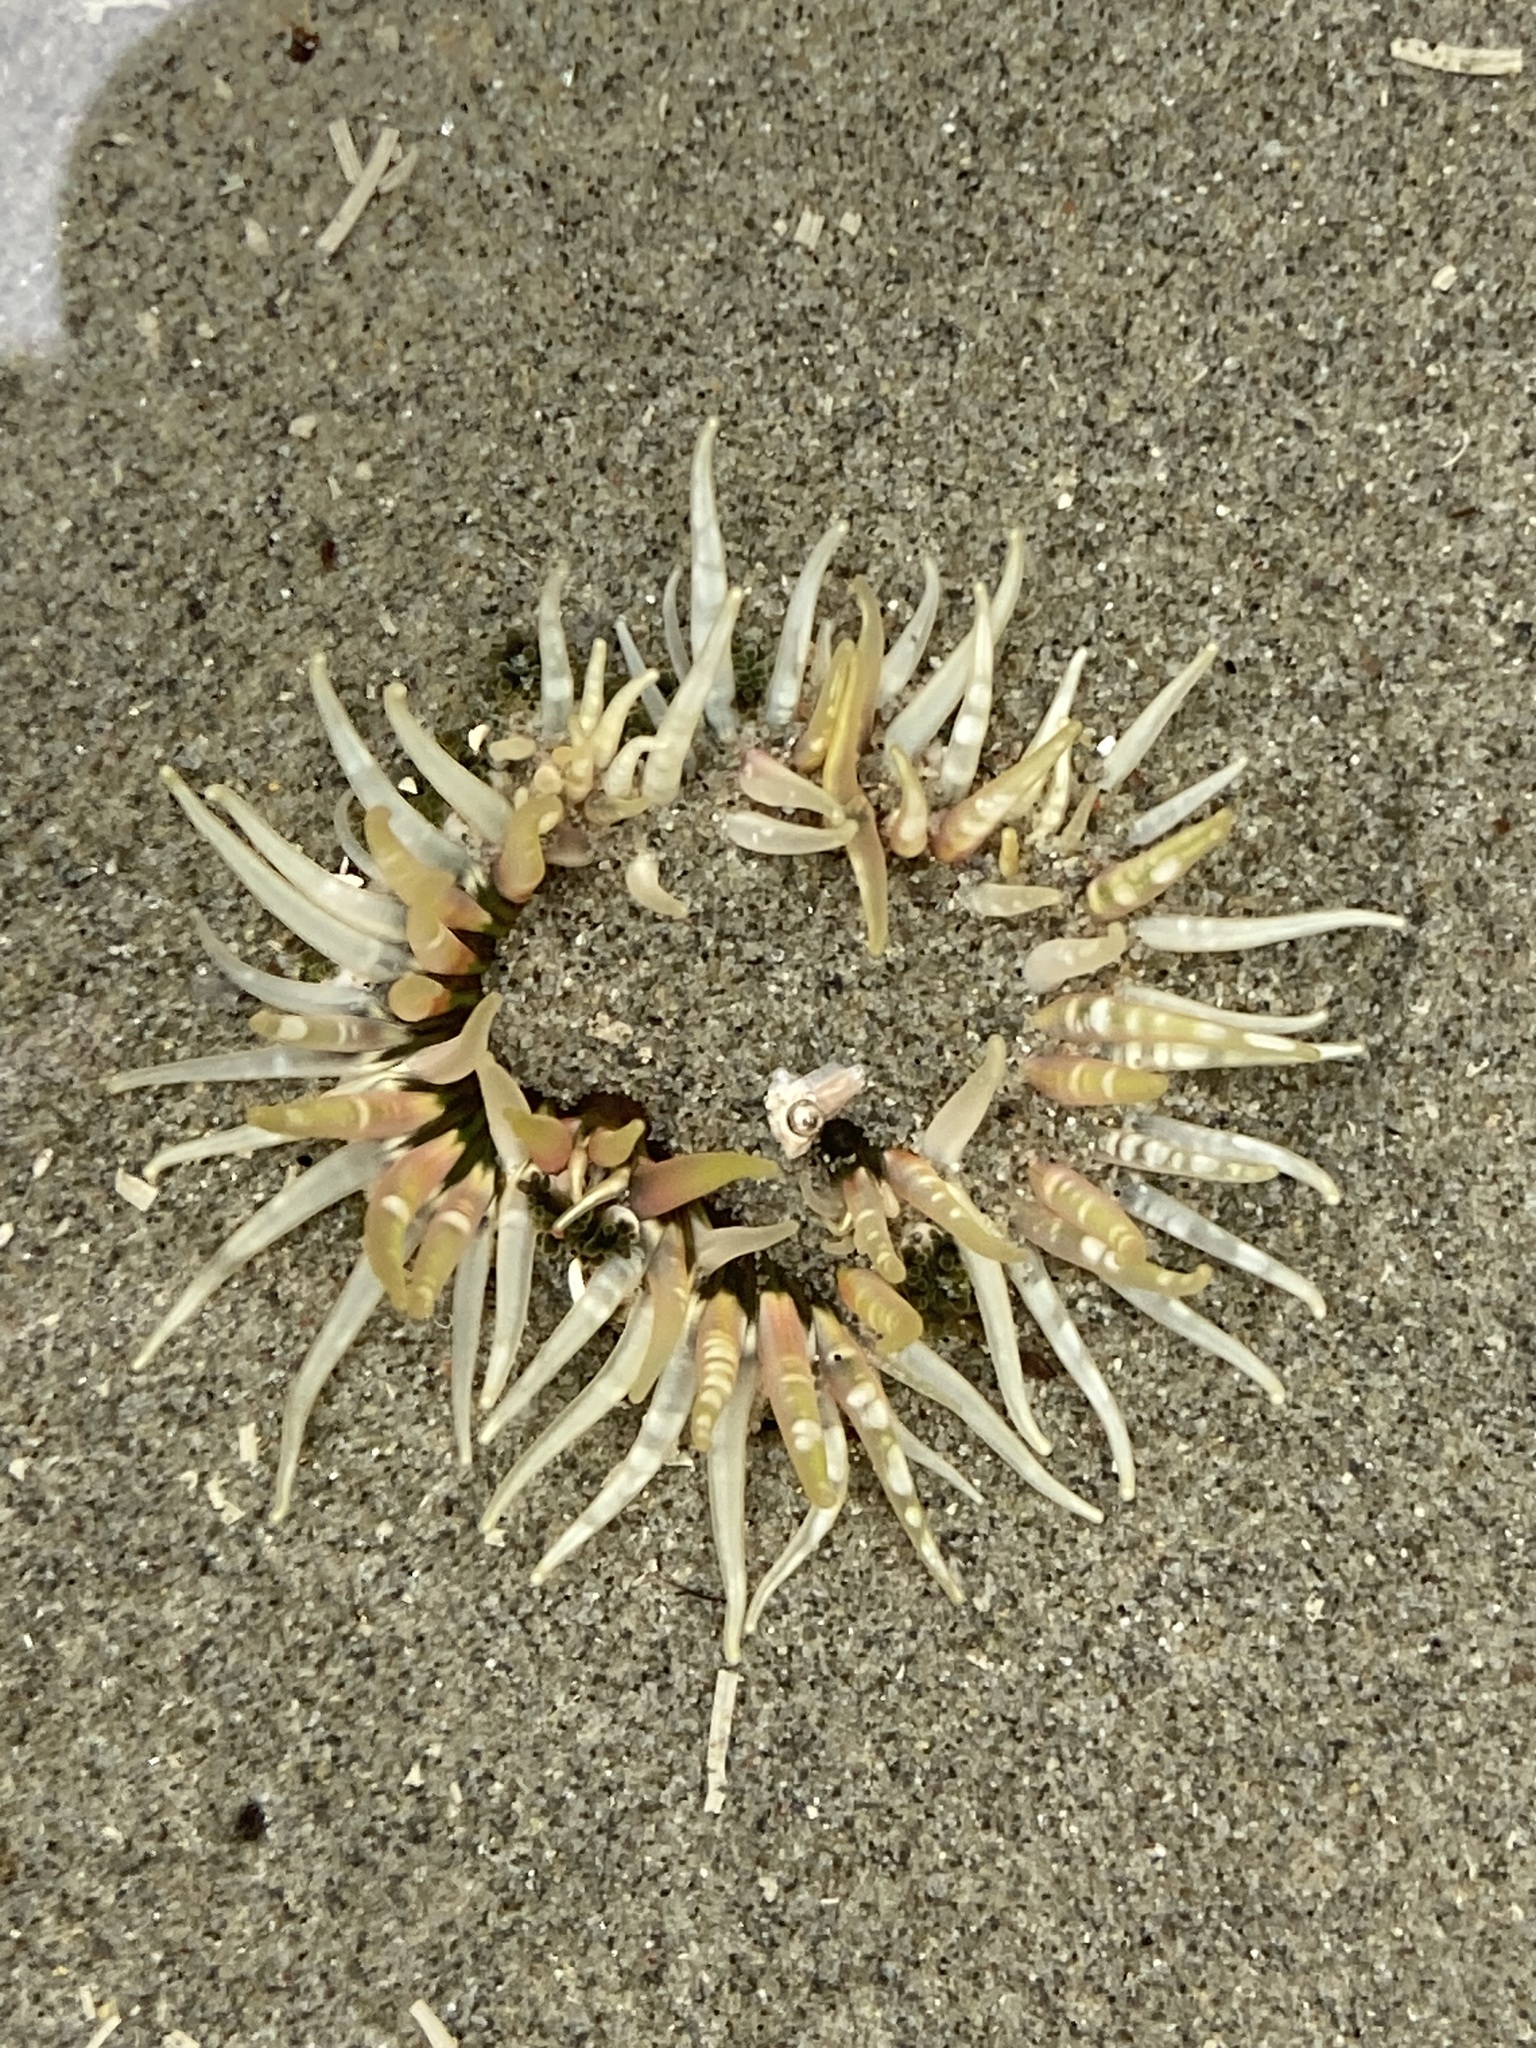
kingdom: Animalia
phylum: Cnidaria
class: Anthozoa
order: Actiniaria
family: Actiniidae
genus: Oulactis
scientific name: Oulactis muscosa
